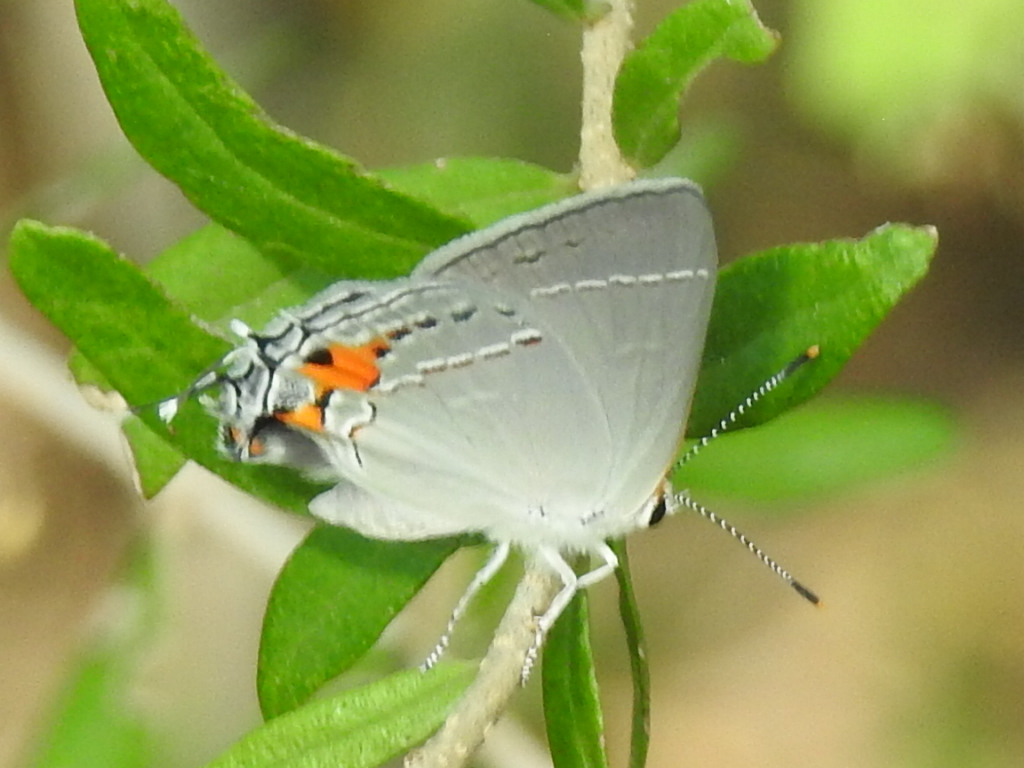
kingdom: Animalia
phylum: Arthropoda
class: Insecta
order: Lepidoptera
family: Lycaenidae
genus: Strymon
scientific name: Strymon melinus
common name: Gray hairstreak
